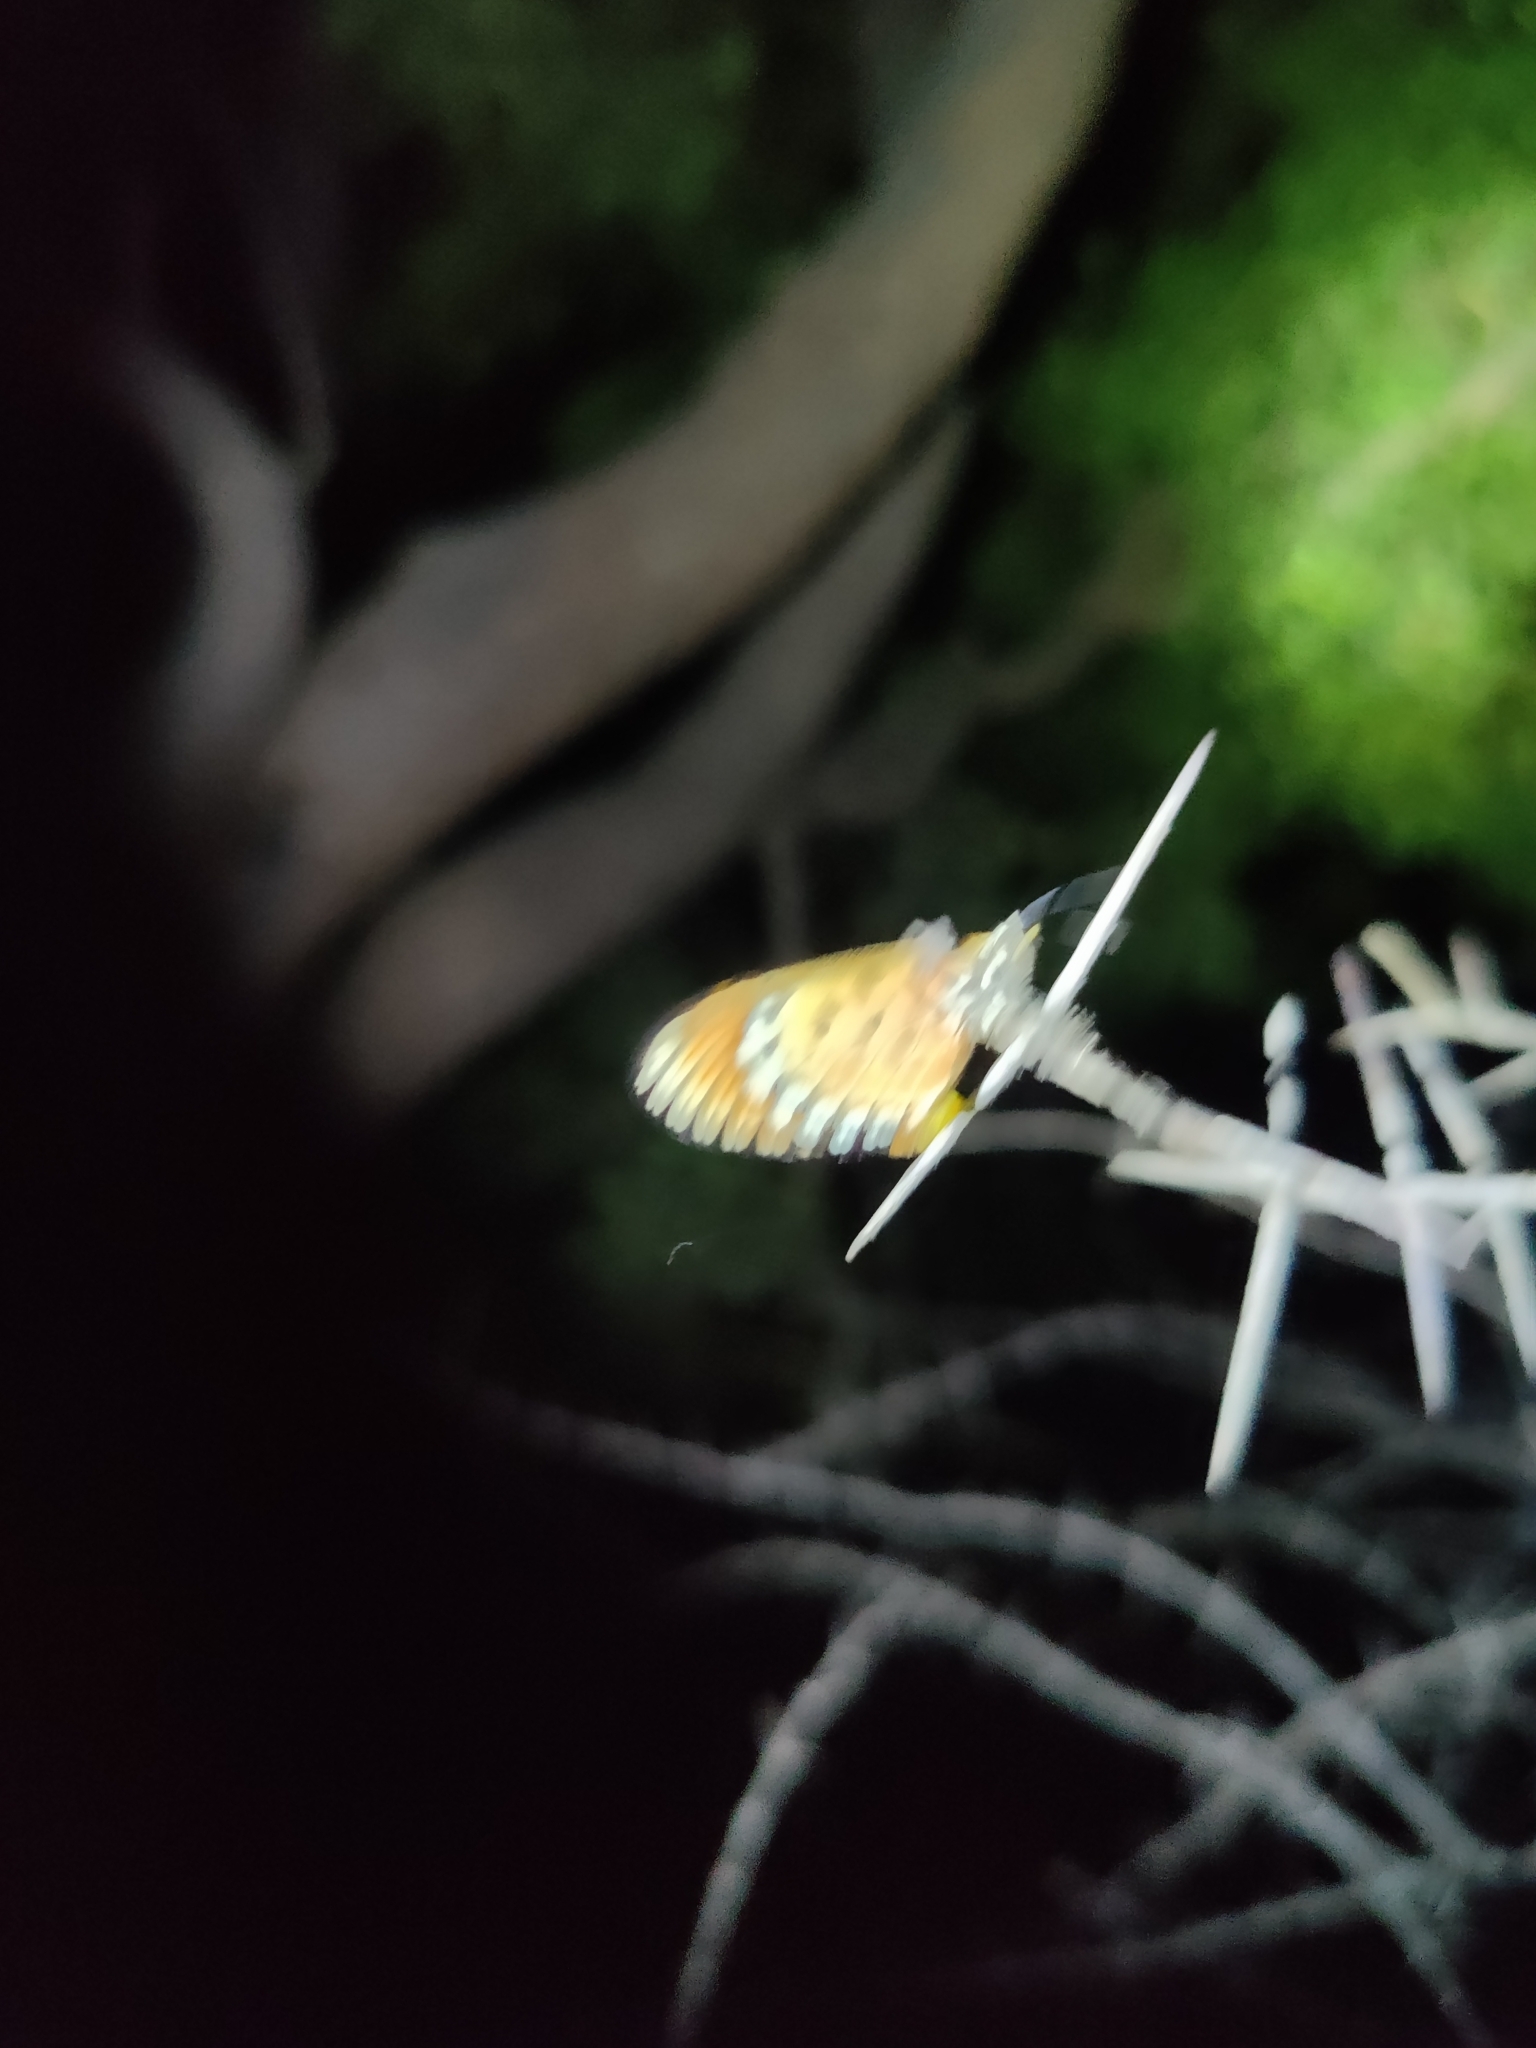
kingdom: Animalia
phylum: Arthropoda
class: Insecta
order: Lepidoptera
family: Nymphalidae
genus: Acraea
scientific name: Acraea terpsicore
